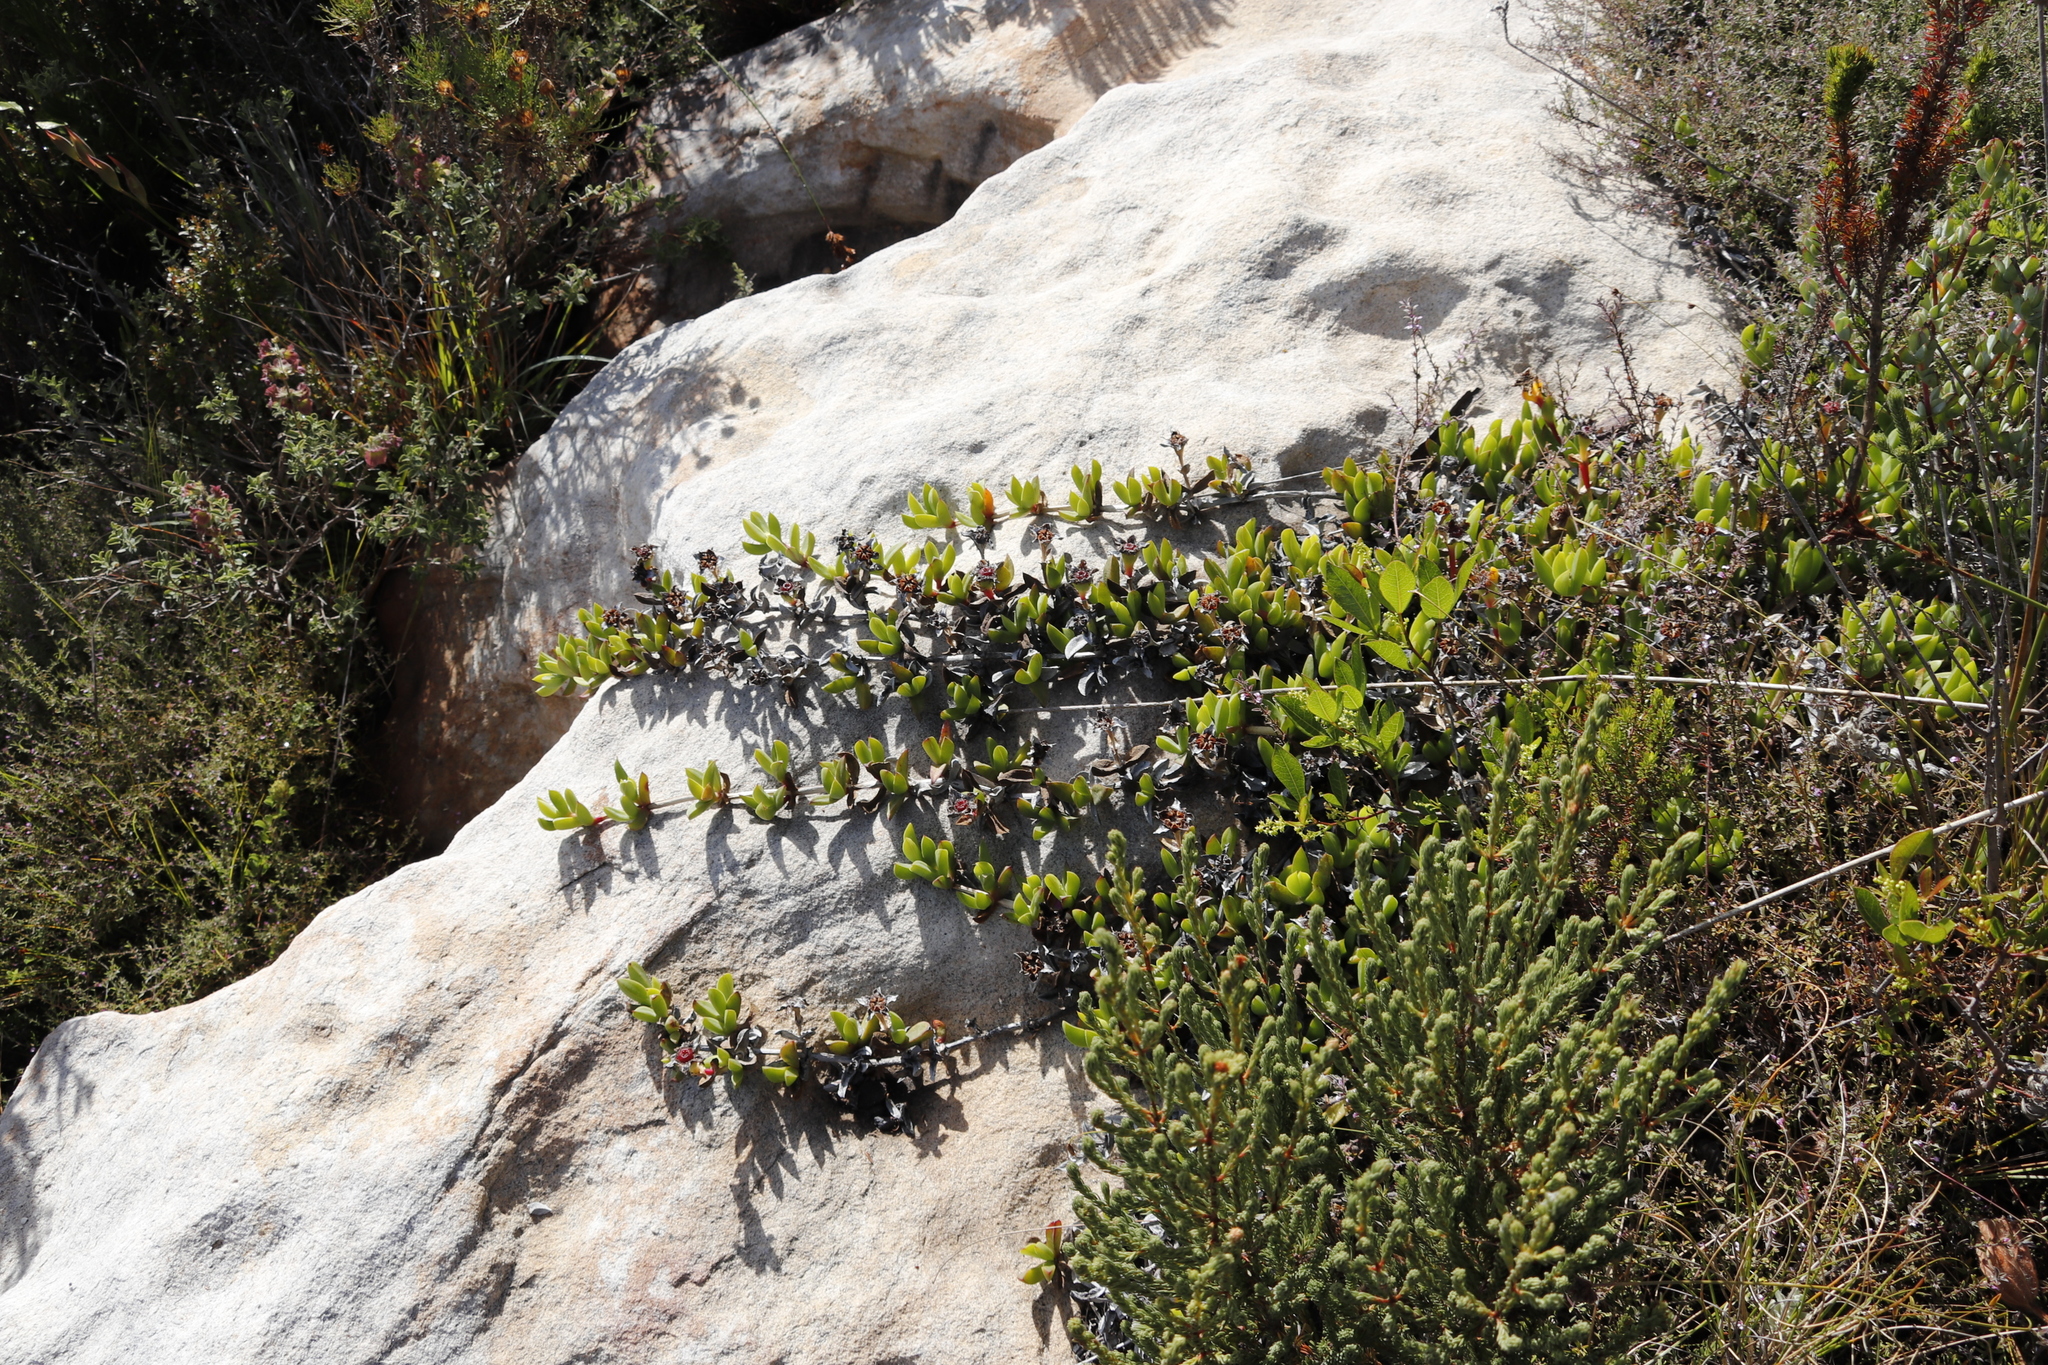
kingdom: Plantae
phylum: Tracheophyta
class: Magnoliopsida
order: Caryophyllales
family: Aizoaceae
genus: Ruschia
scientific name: Ruschia rubricaulis
